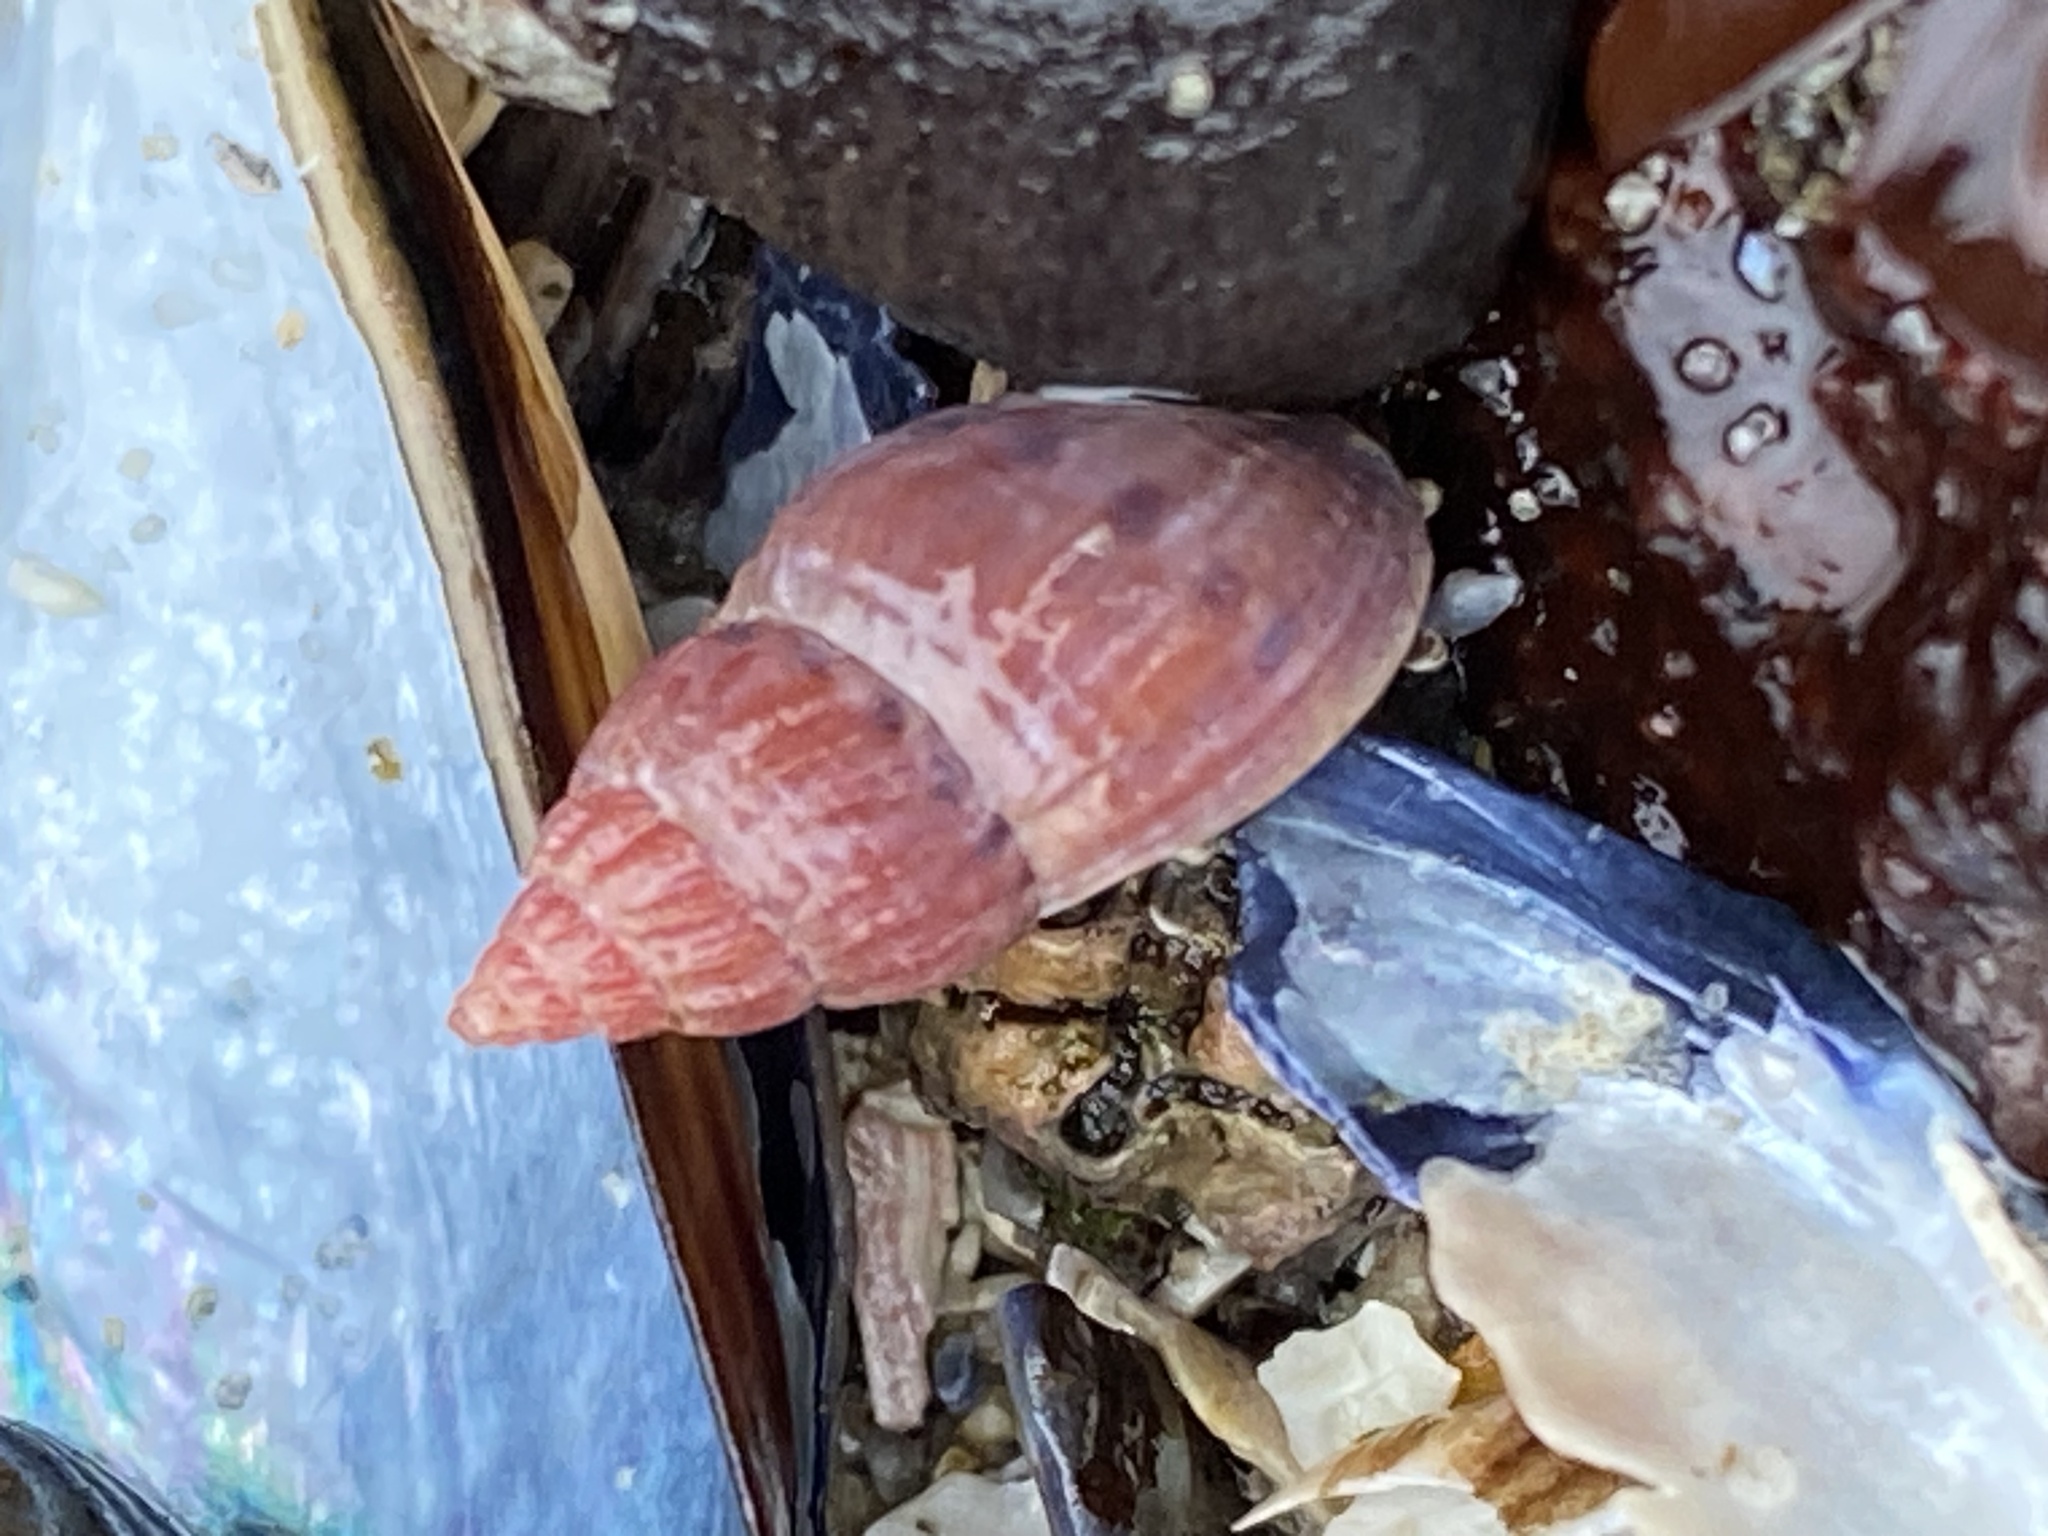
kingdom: Animalia
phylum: Mollusca
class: Gastropoda
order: Neogastropoda
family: Columbellidae
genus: Amphissa
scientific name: Amphissa versicolor
